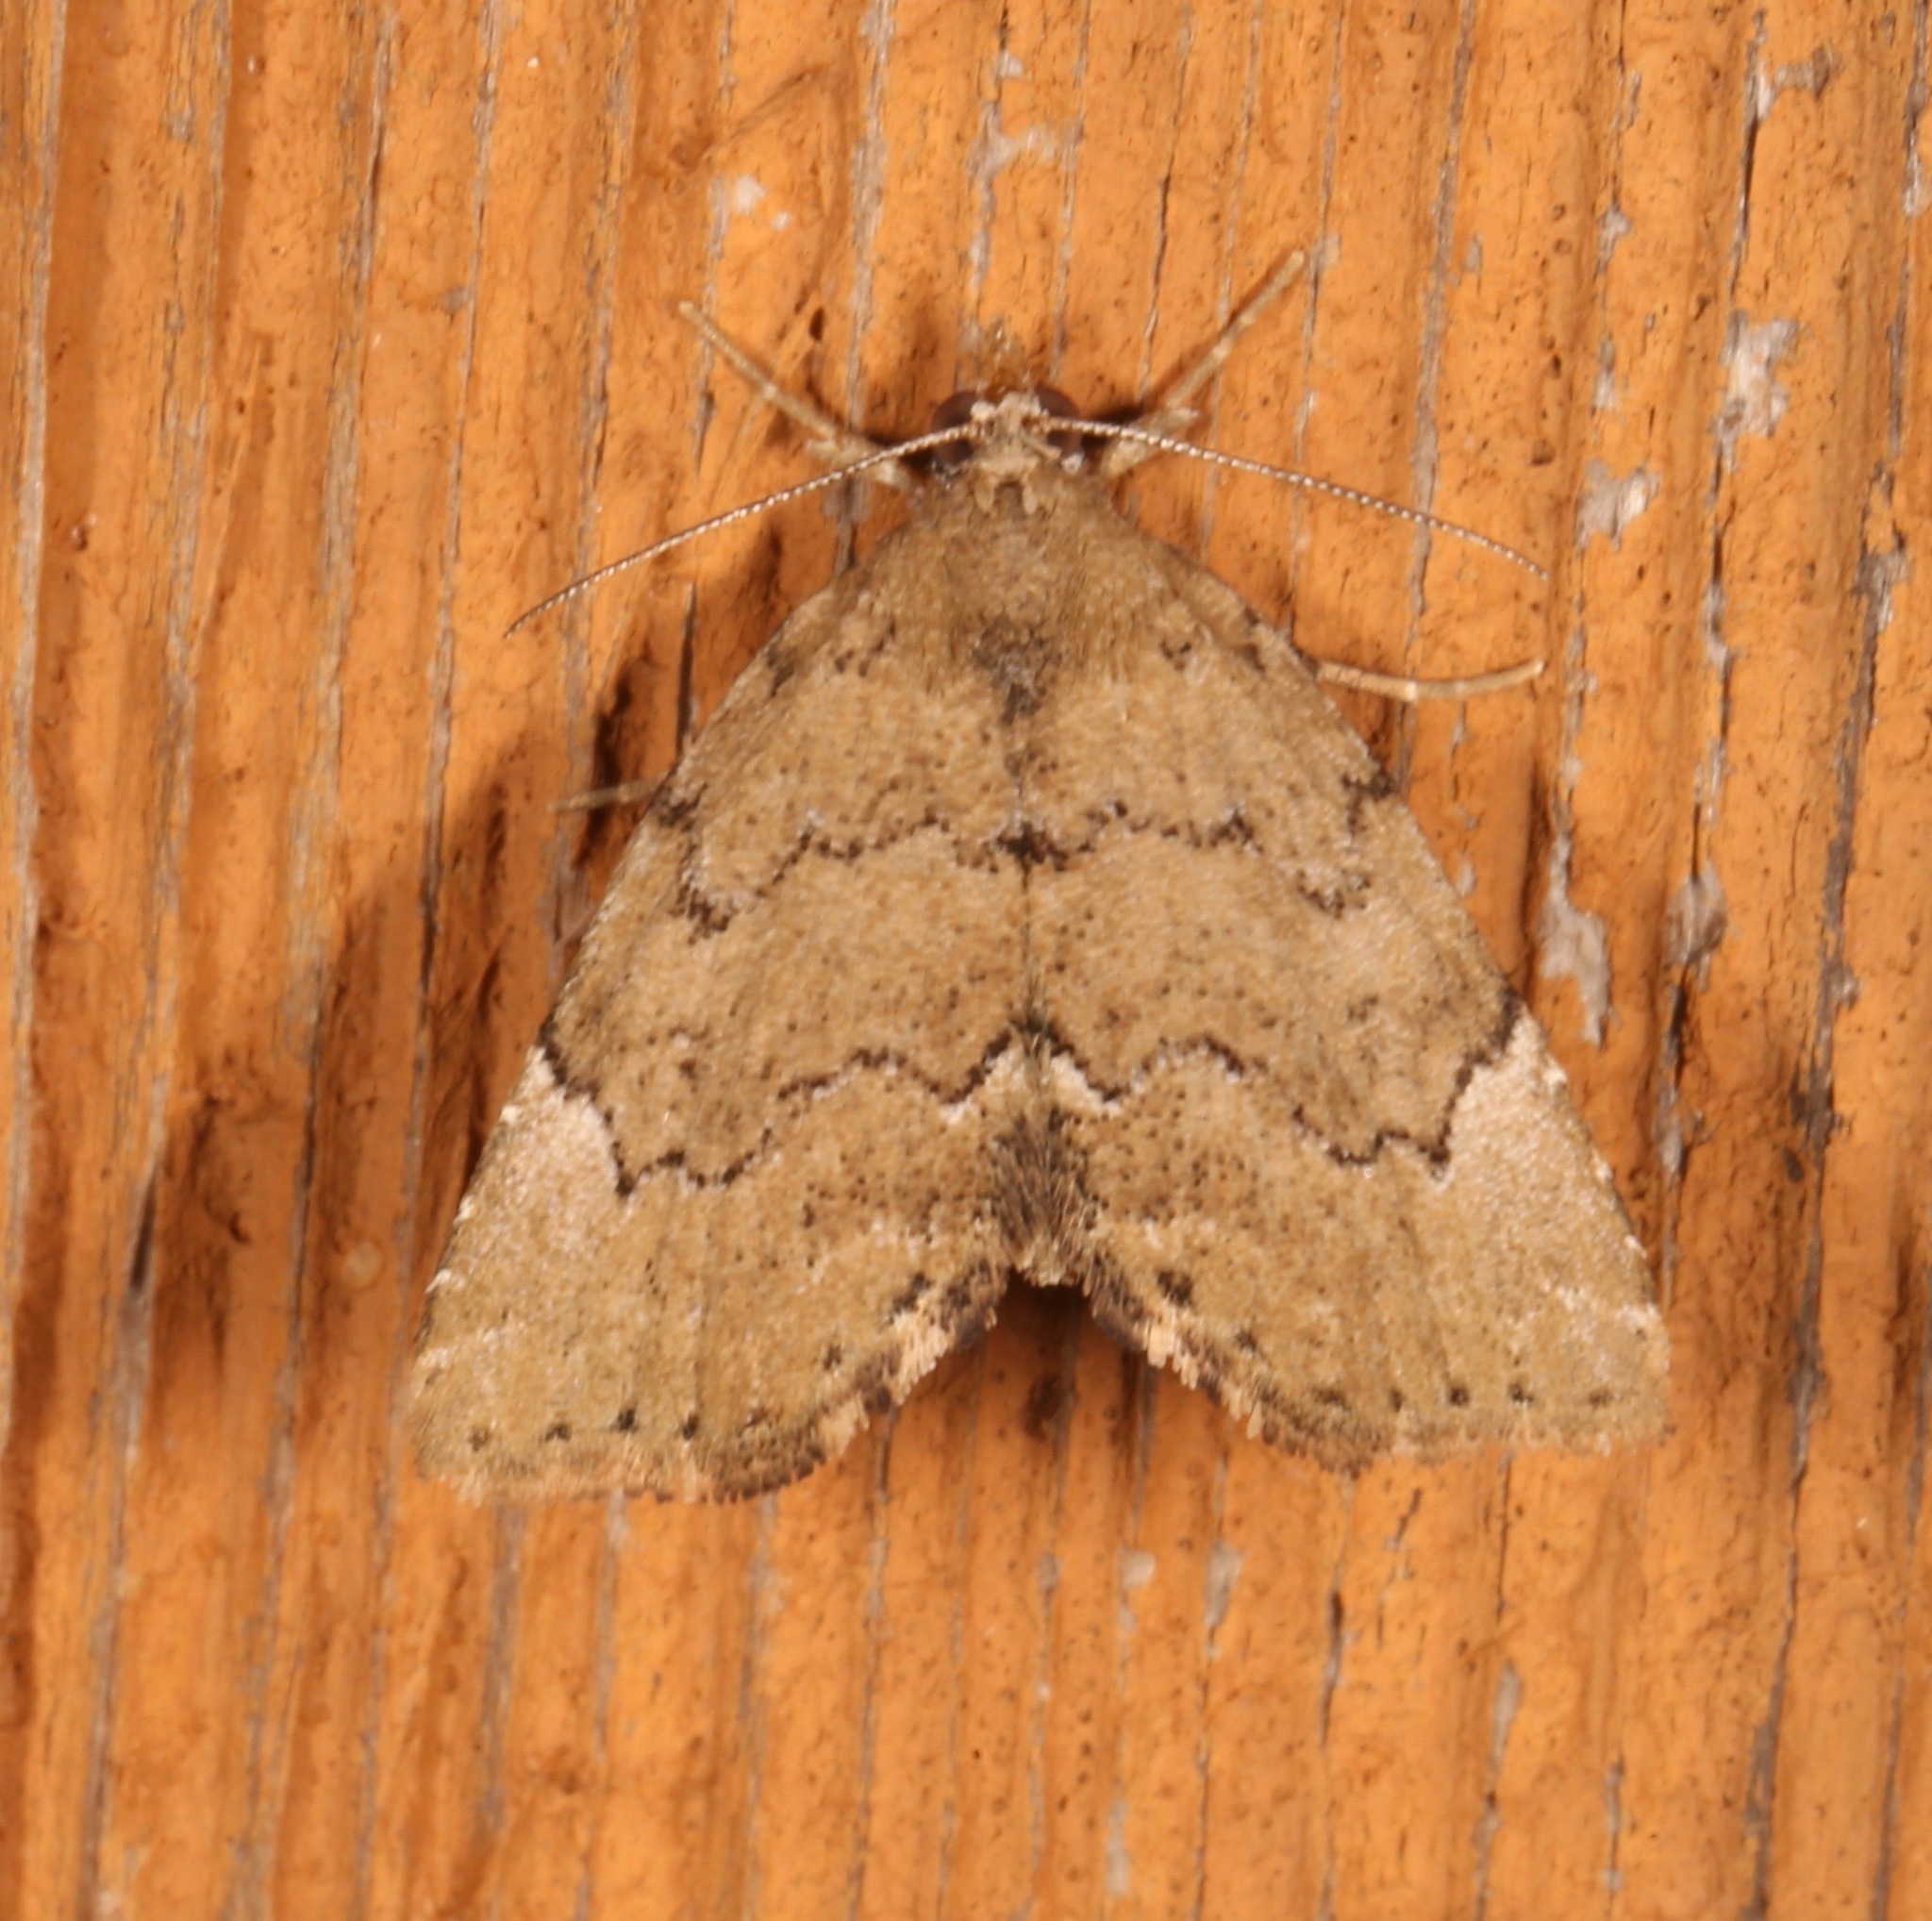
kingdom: Animalia
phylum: Arthropoda
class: Insecta
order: Lepidoptera
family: Erebidae
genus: Cutina
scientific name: Cutina aluticolor
